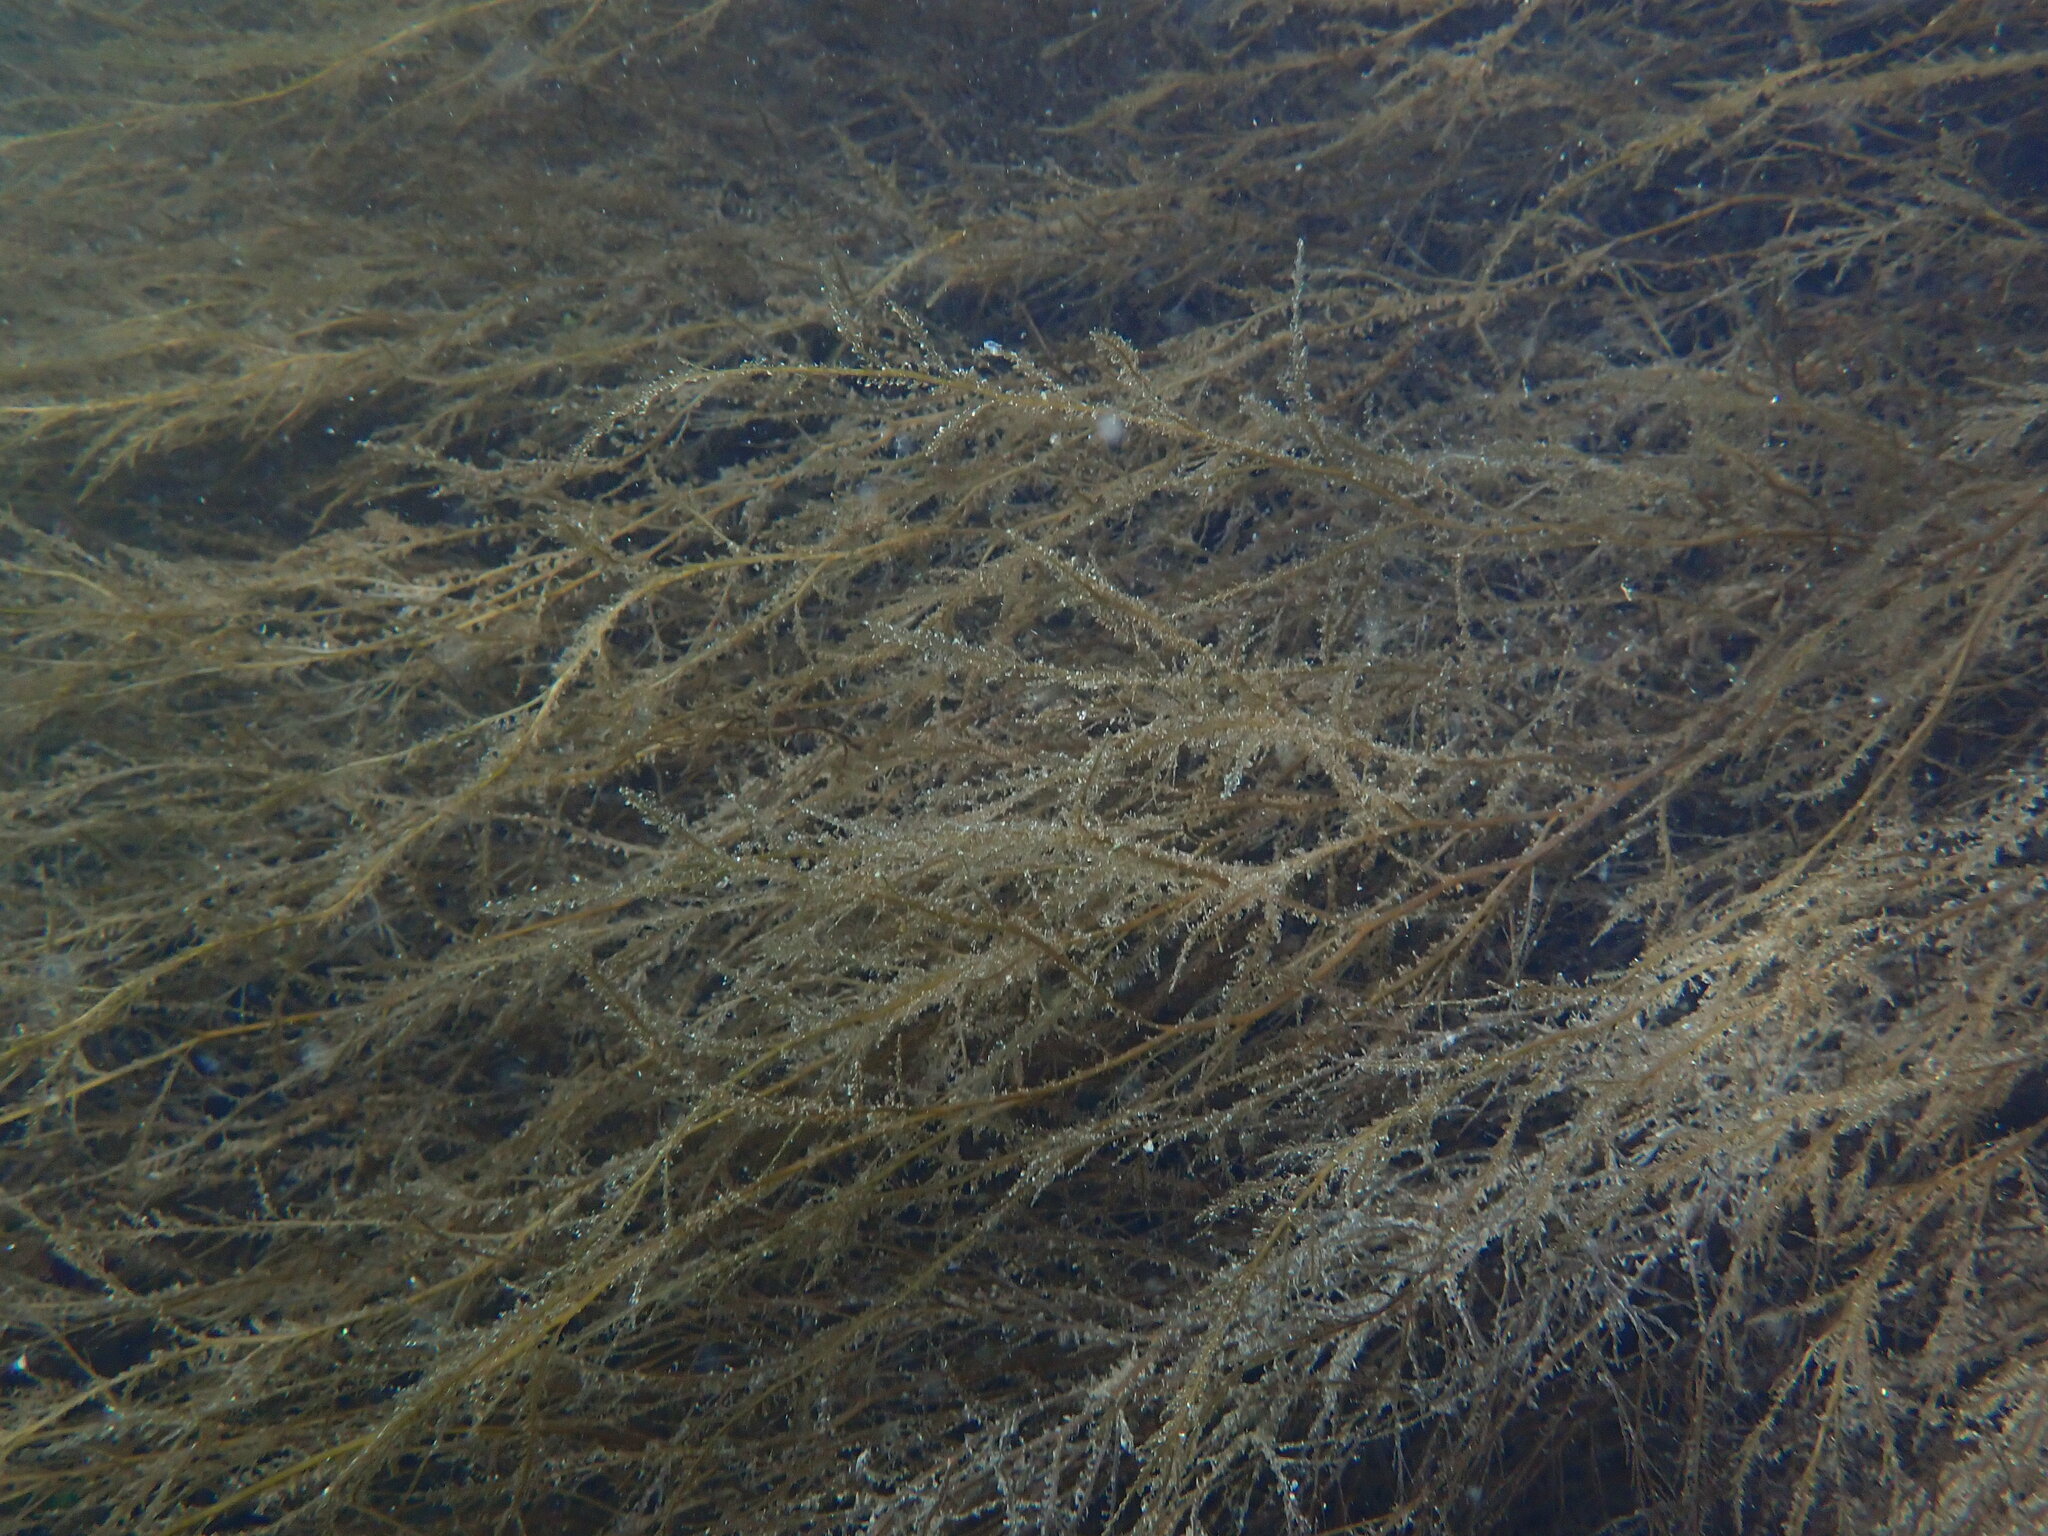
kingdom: Chromista
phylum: Ochrophyta
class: Phaeophyceae
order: Fucales
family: Sargassaceae
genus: Sargassum
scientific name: Sargassum muticum
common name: Japweed
